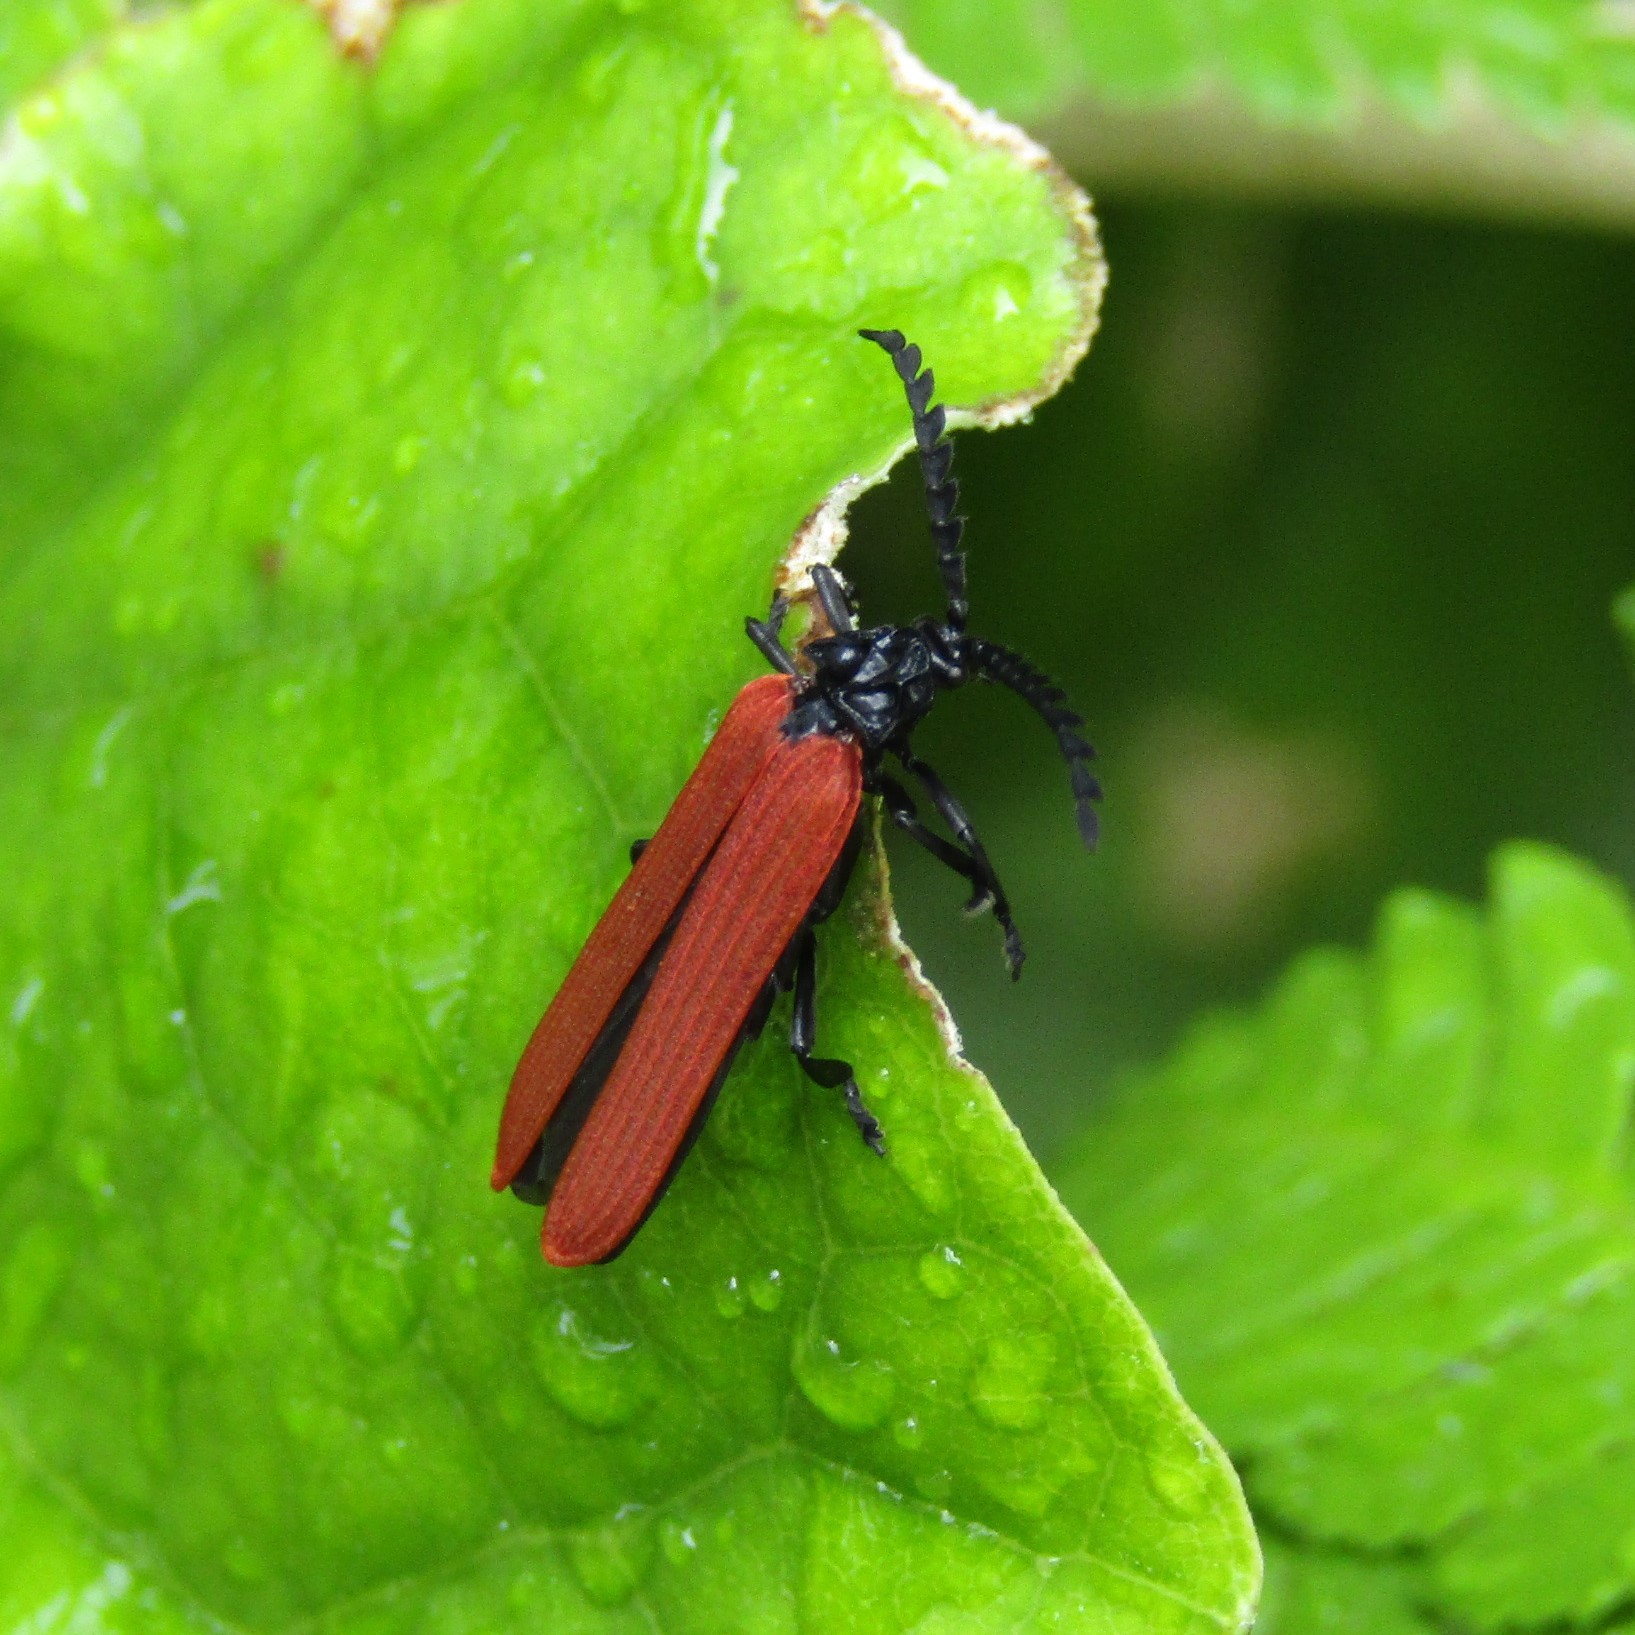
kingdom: Animalia
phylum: Arthropoda
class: Insecta
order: Coleoptera
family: Lycidae
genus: Porrostoma
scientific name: Porrostoma rufipenne
